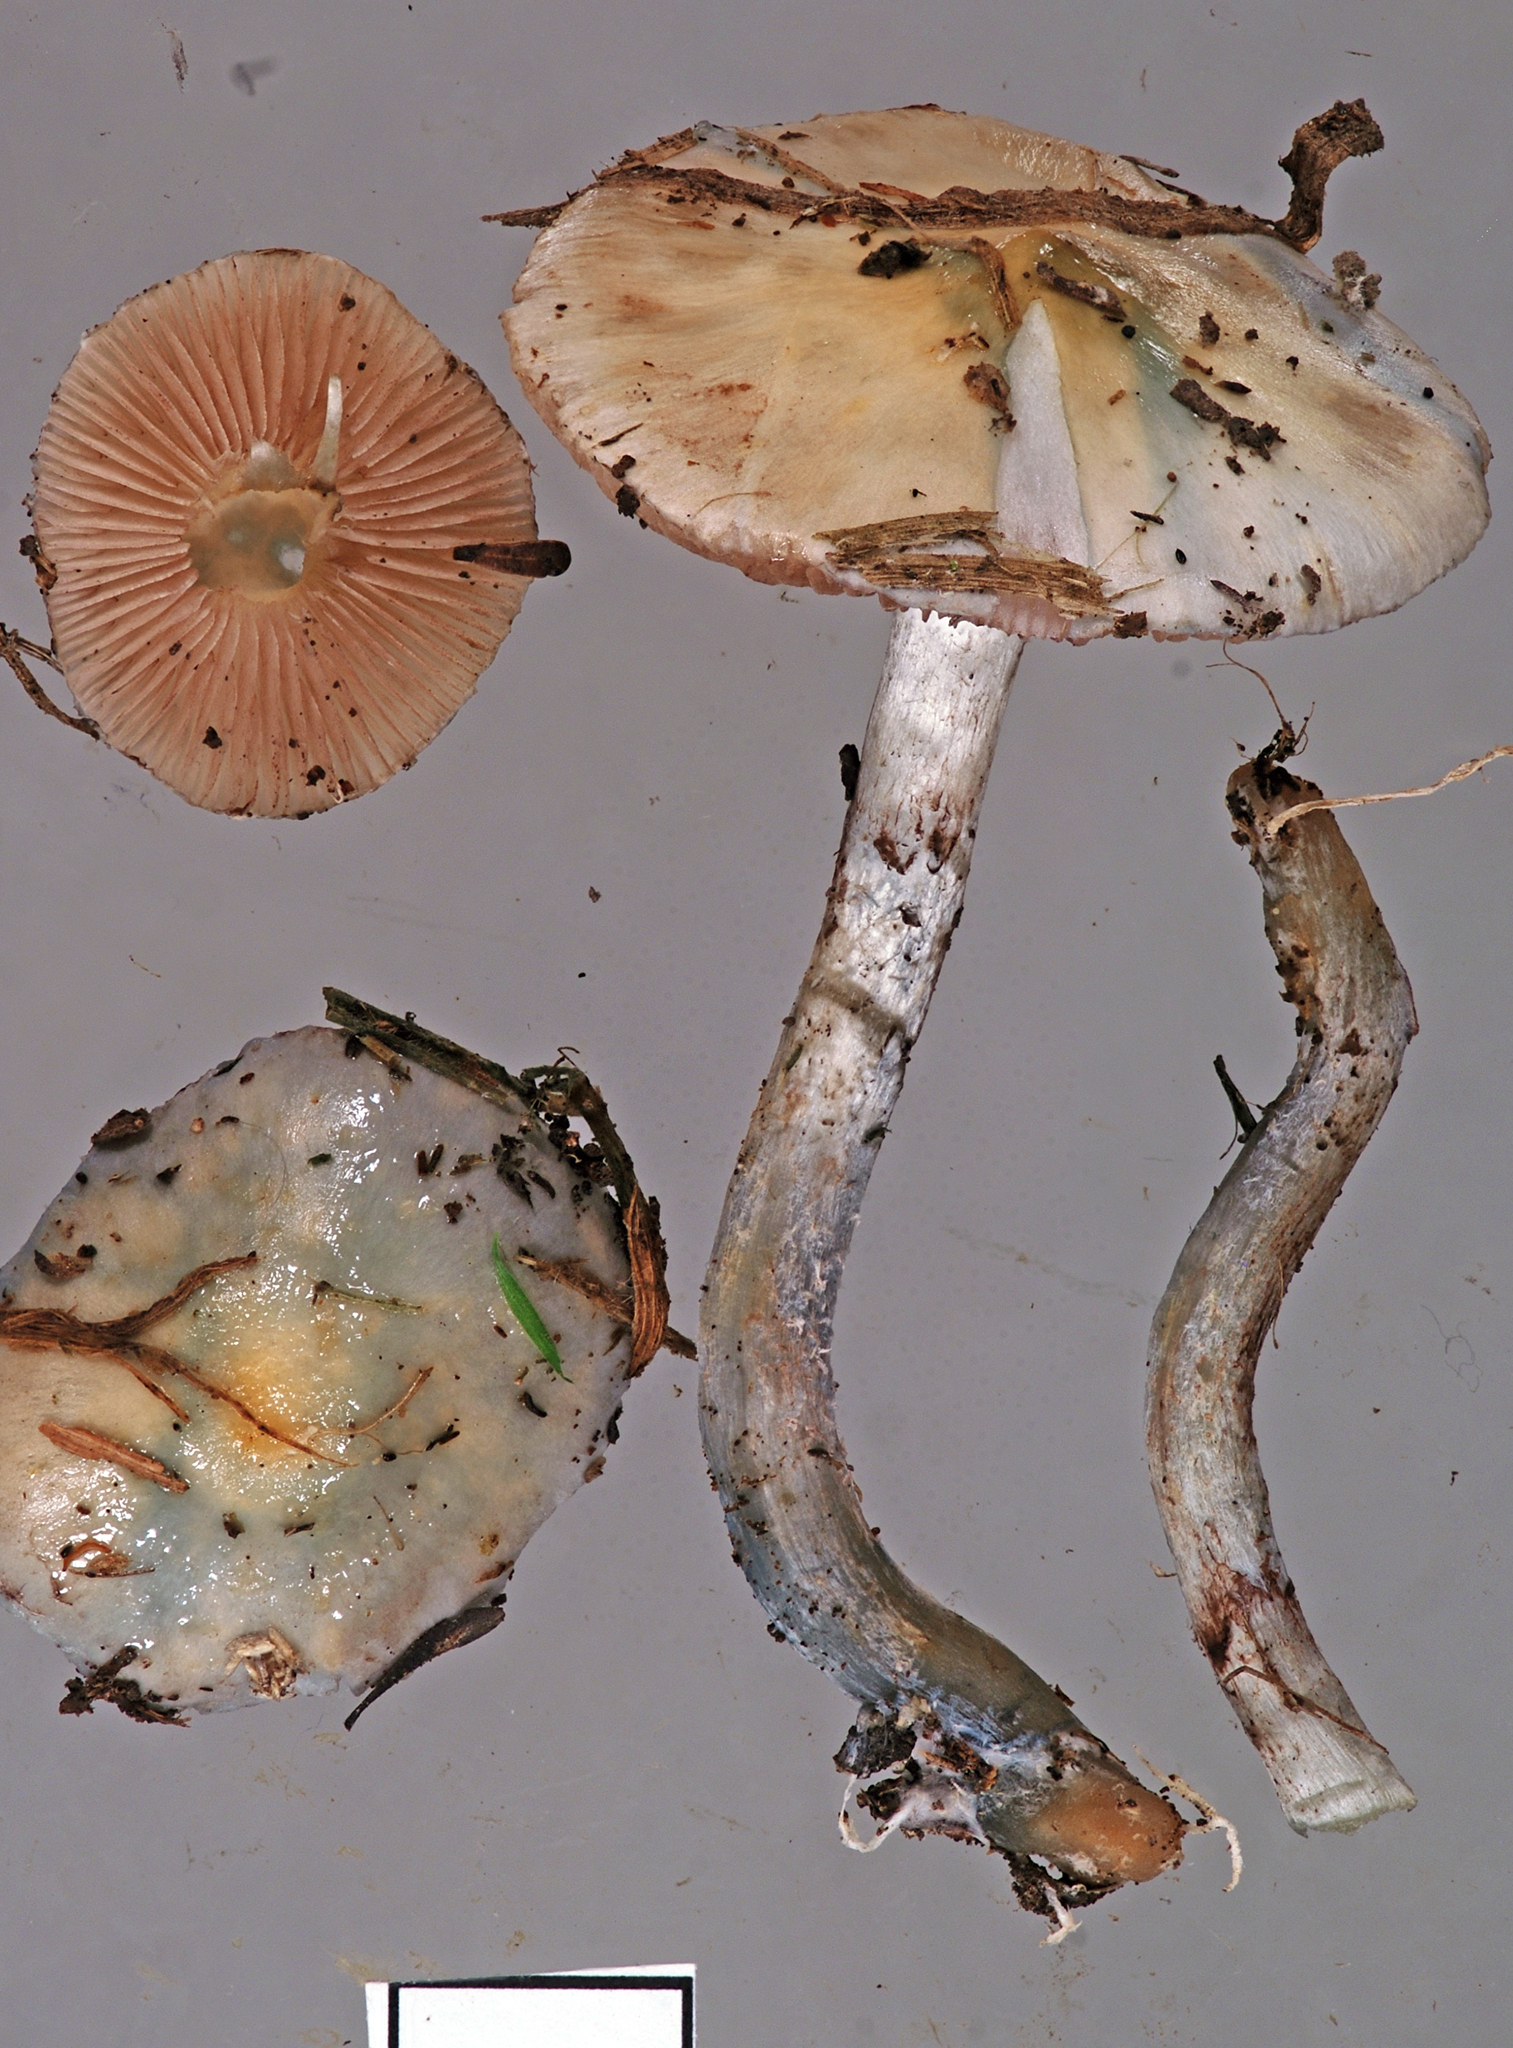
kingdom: Fungi
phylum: Basidiomycota
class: Agaricomycetes
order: Agaricales
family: Strophariaceae
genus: Stropharia
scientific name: Stropharia caerulea
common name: Blue roundhead
